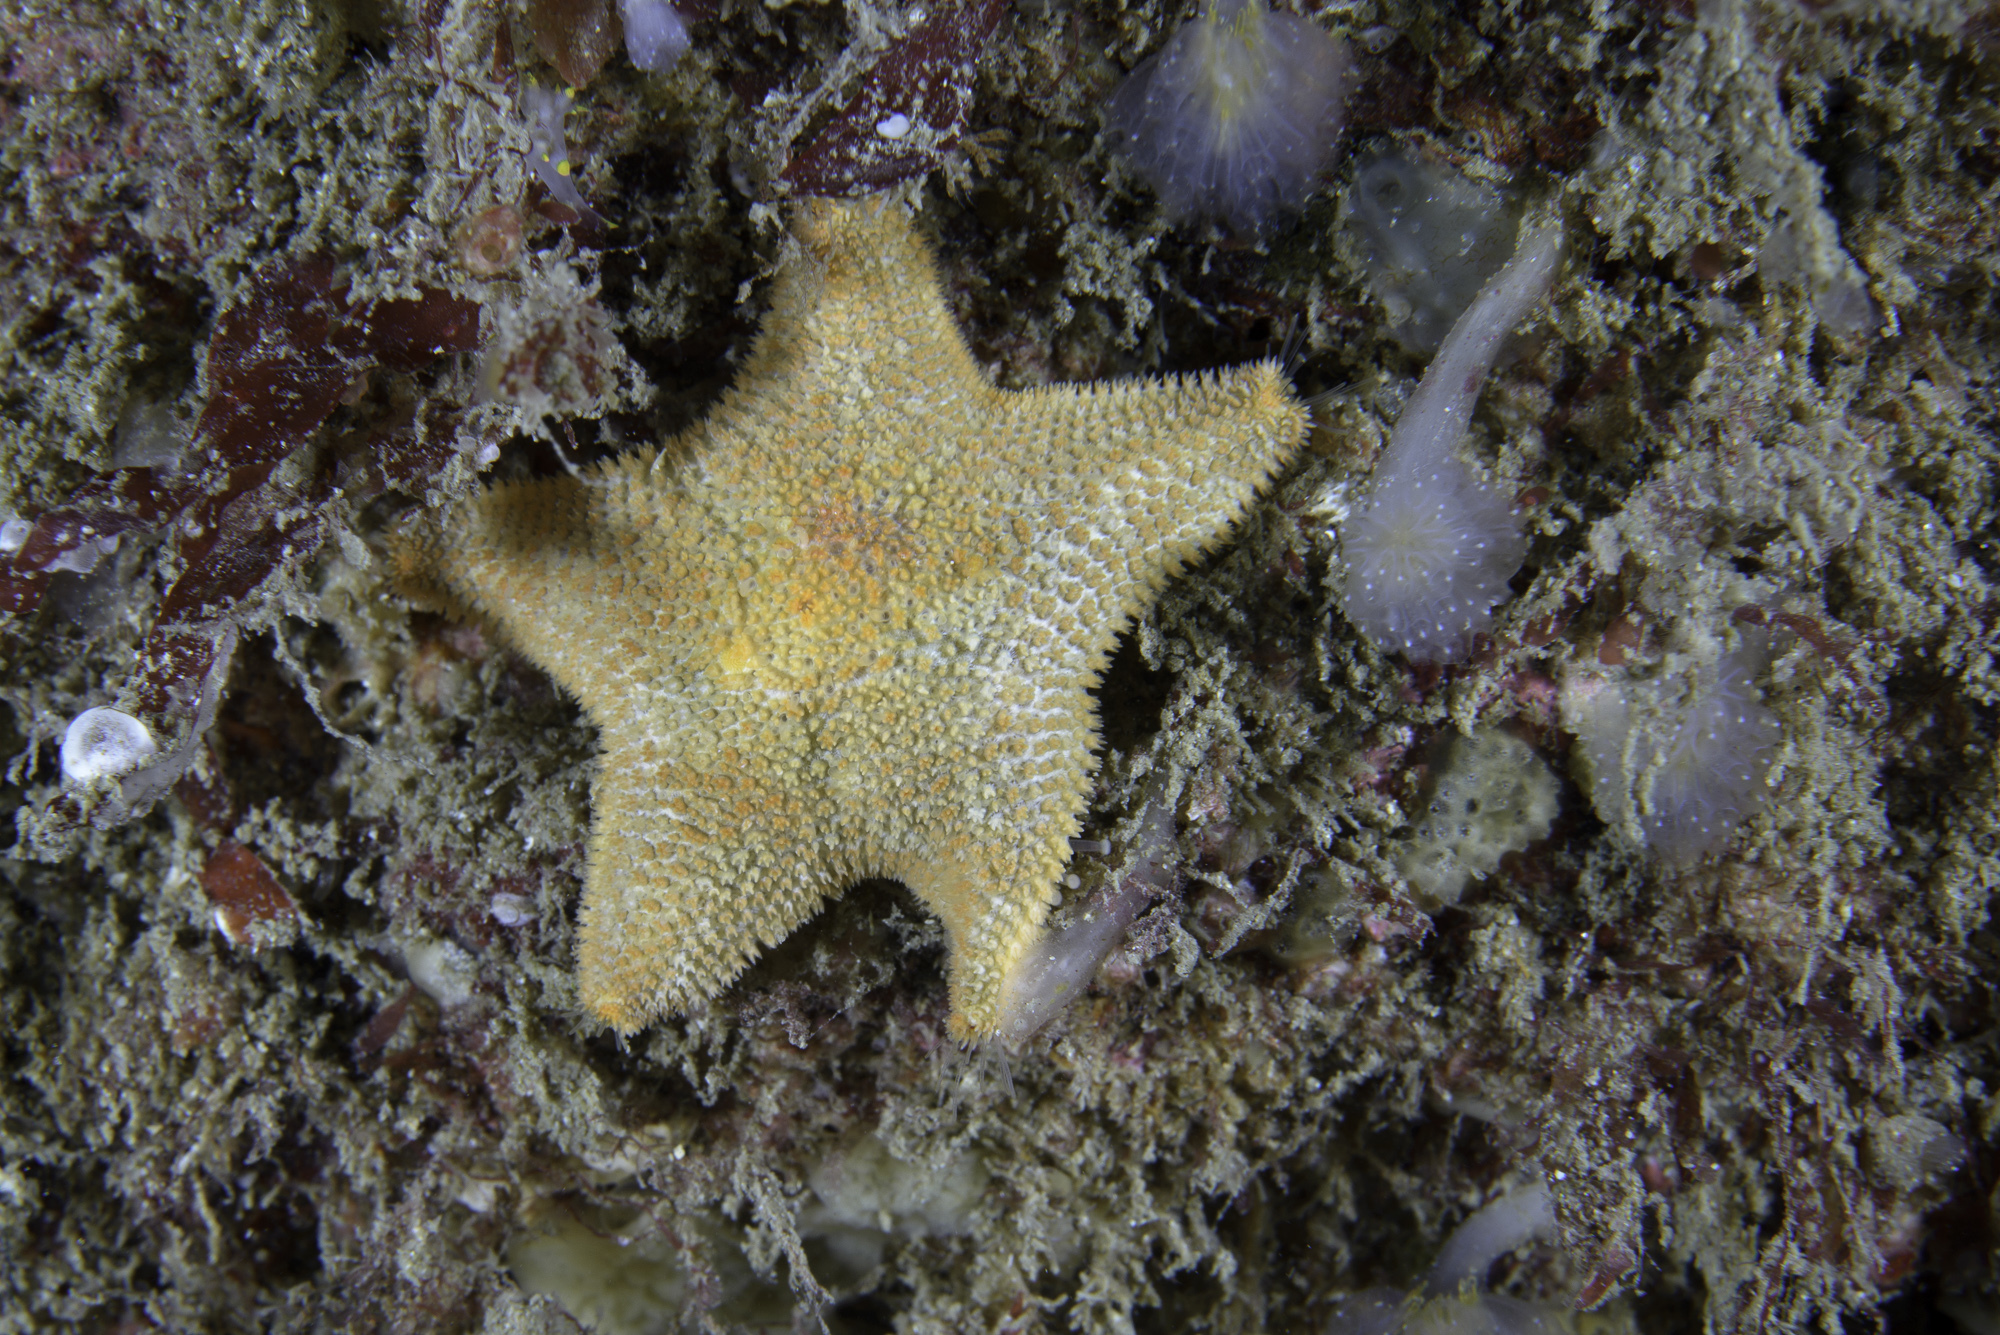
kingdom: Animalia
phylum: Echinodermata
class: Asteroidea
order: Valvatida
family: Asterinidae
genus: Asterina
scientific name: Asterina gibbosa
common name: Cushion star
